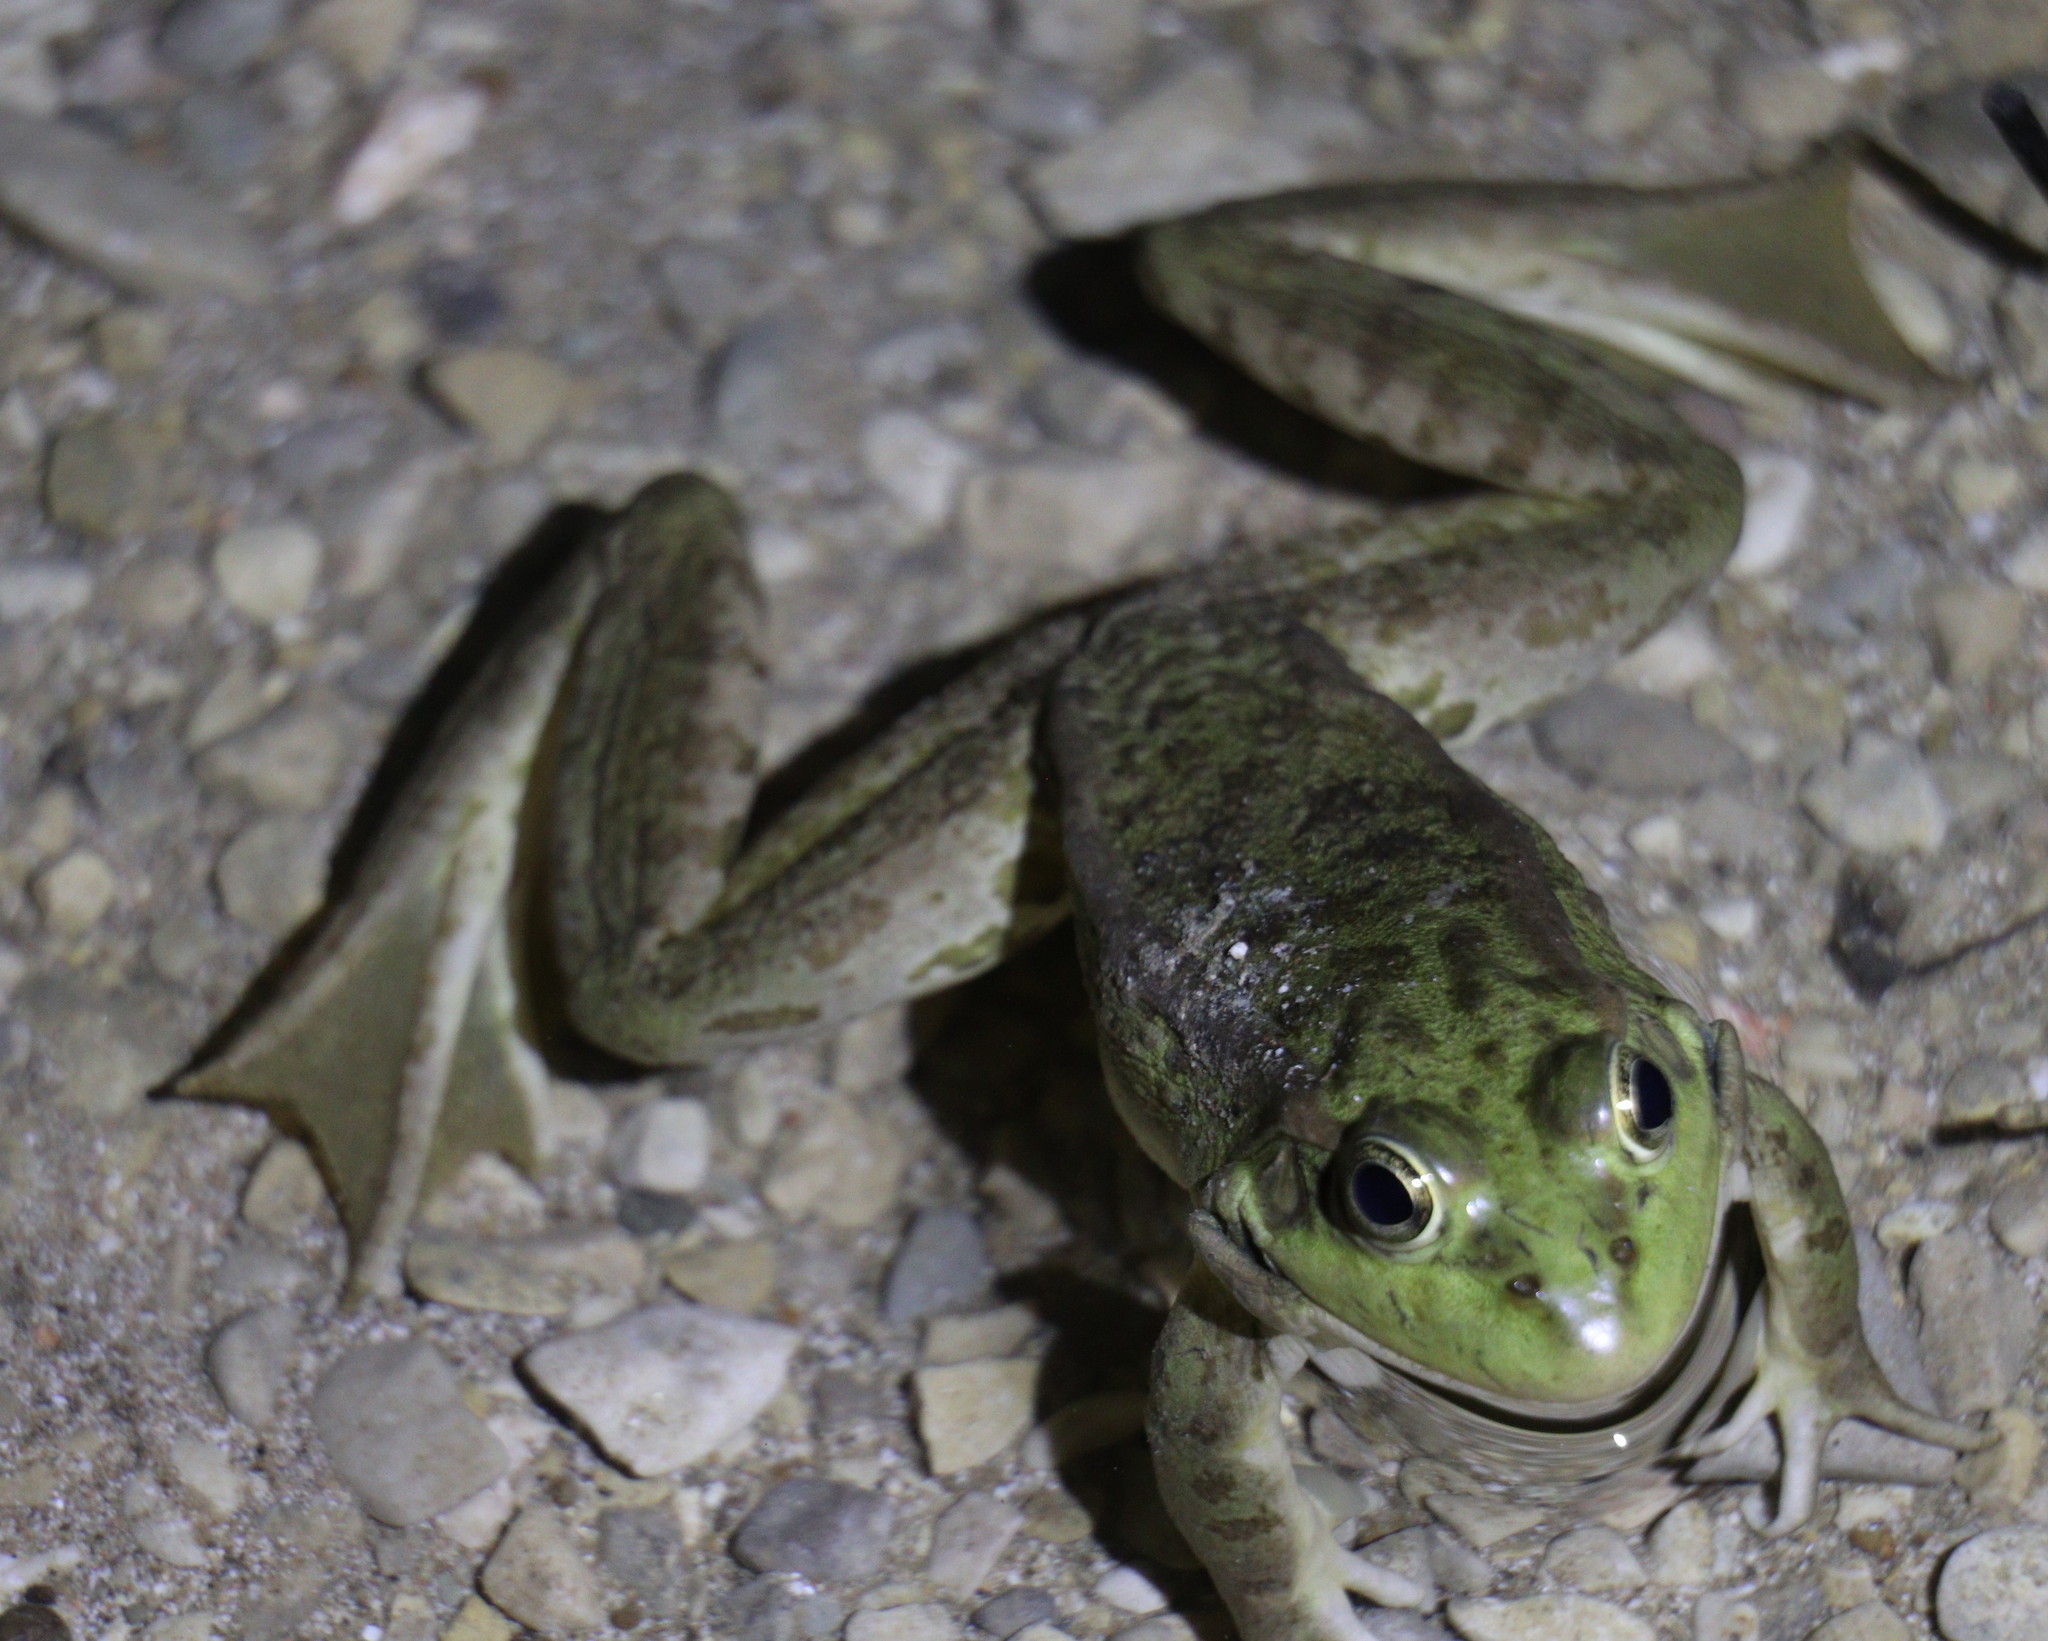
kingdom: Animalia
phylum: Chordata
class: Amphibia
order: Anura
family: Ranidae
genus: Pelophylax
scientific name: Pelophylax ridibundus
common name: Marsh frog
